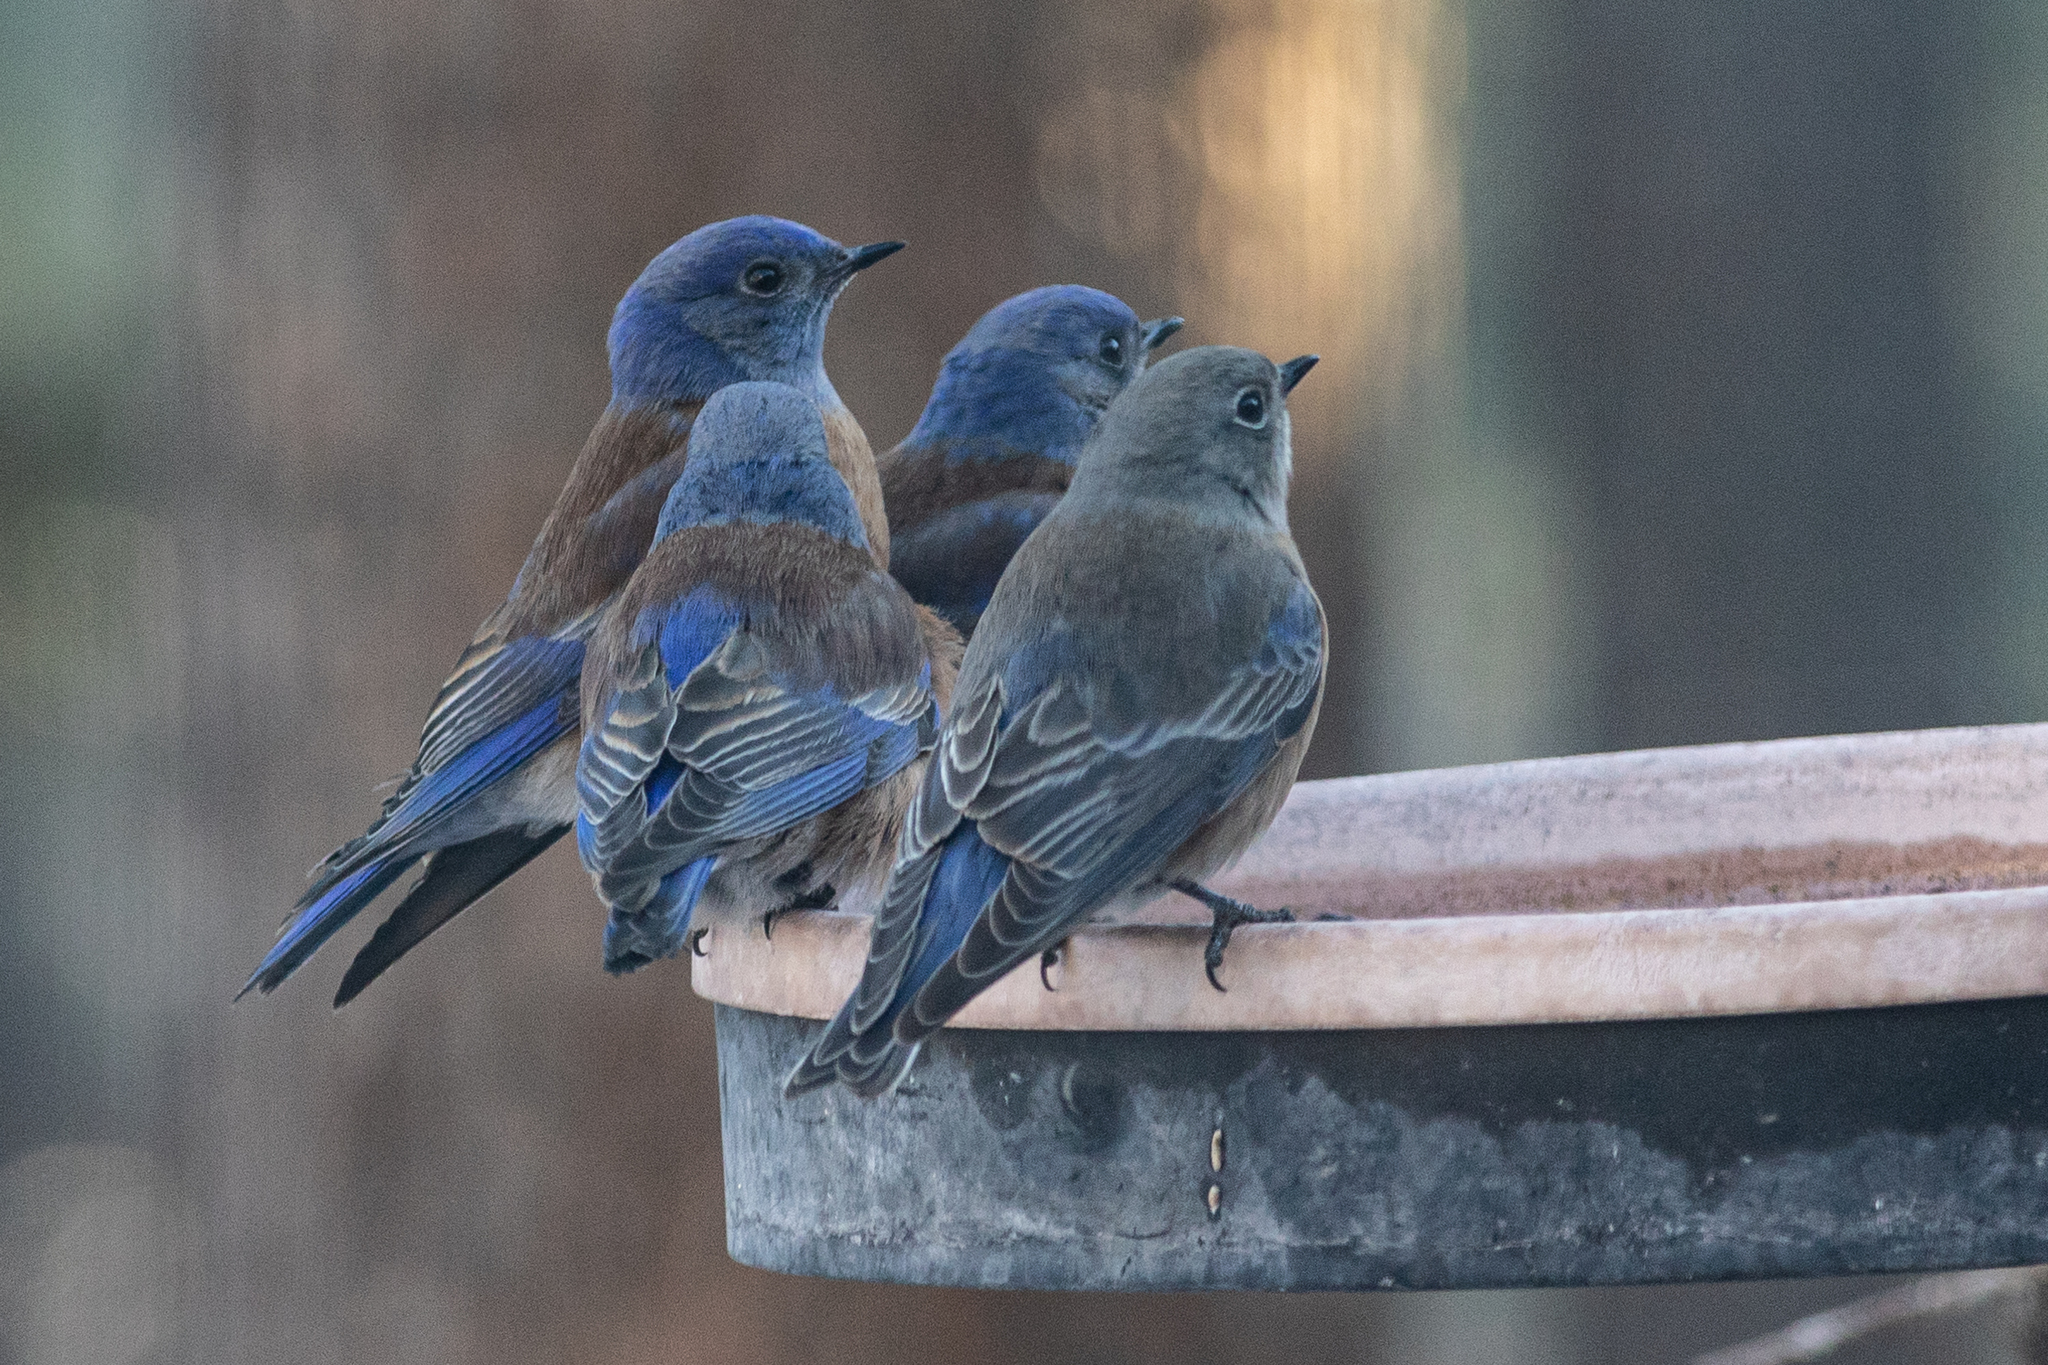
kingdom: Animalia
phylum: Chordata
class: Aves
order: Passeriformes
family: Turdidae
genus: Sialia
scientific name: Sialia mexicana
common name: Western bluebird
